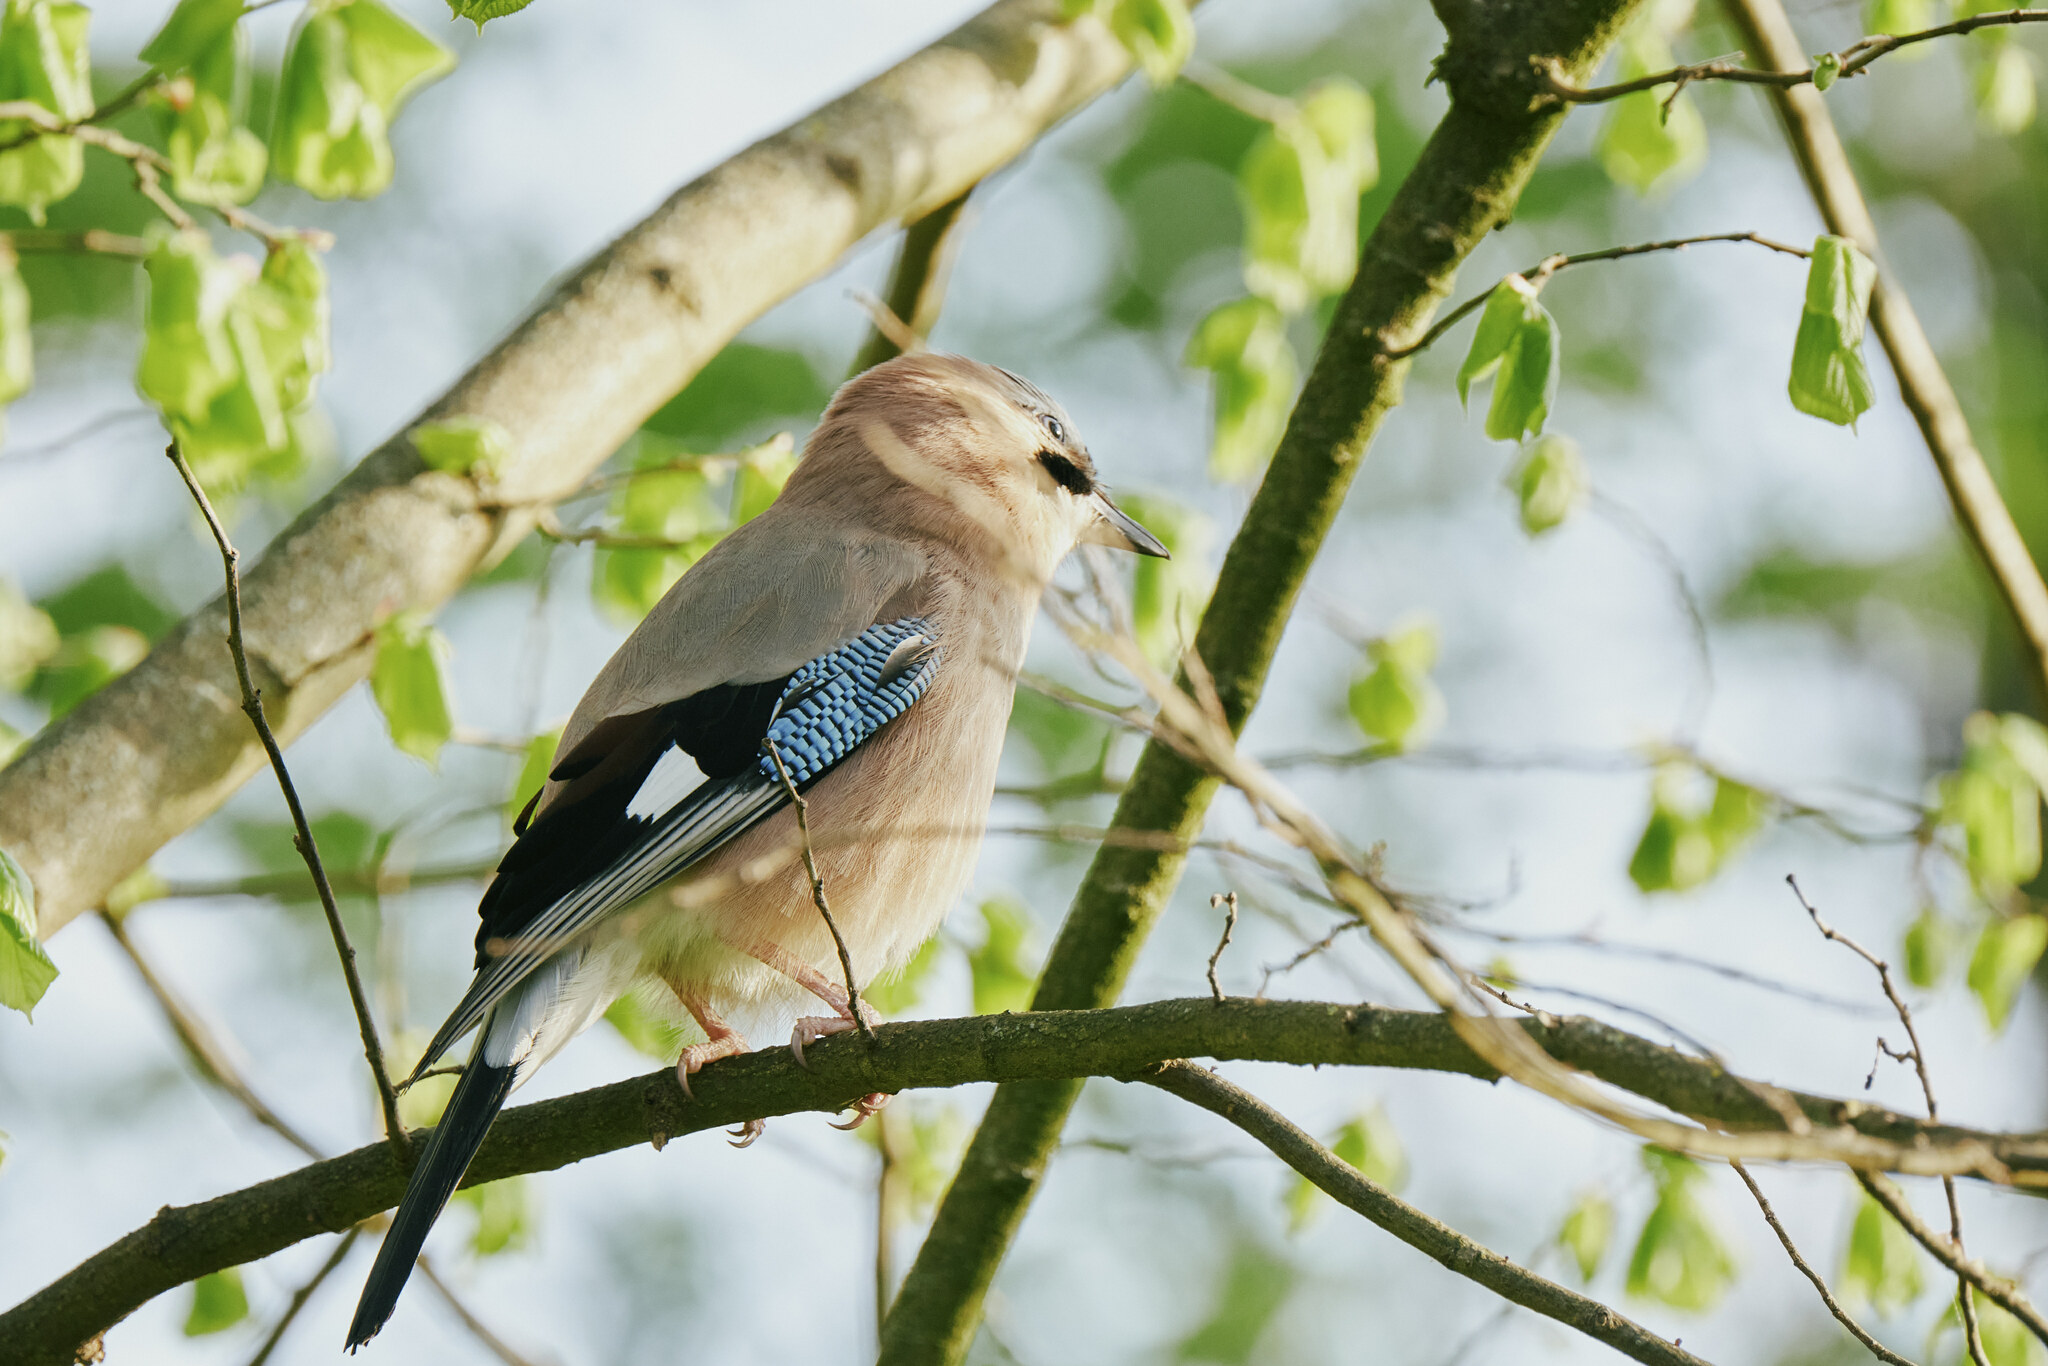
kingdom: Animalia
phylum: Chordata
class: Aves
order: Passeriformes
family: Corvidae
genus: Garrulus
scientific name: Garrulus glandarius
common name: Eurasian jay
